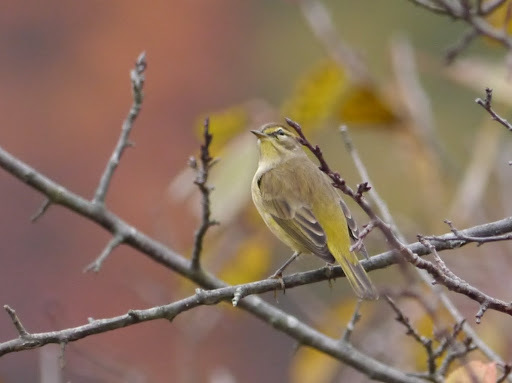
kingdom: Animalia
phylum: Chordata
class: Aves
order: Passeriformes
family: Parulidae
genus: Setophaga
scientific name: Setophaga palmarum
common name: Palm warbler
